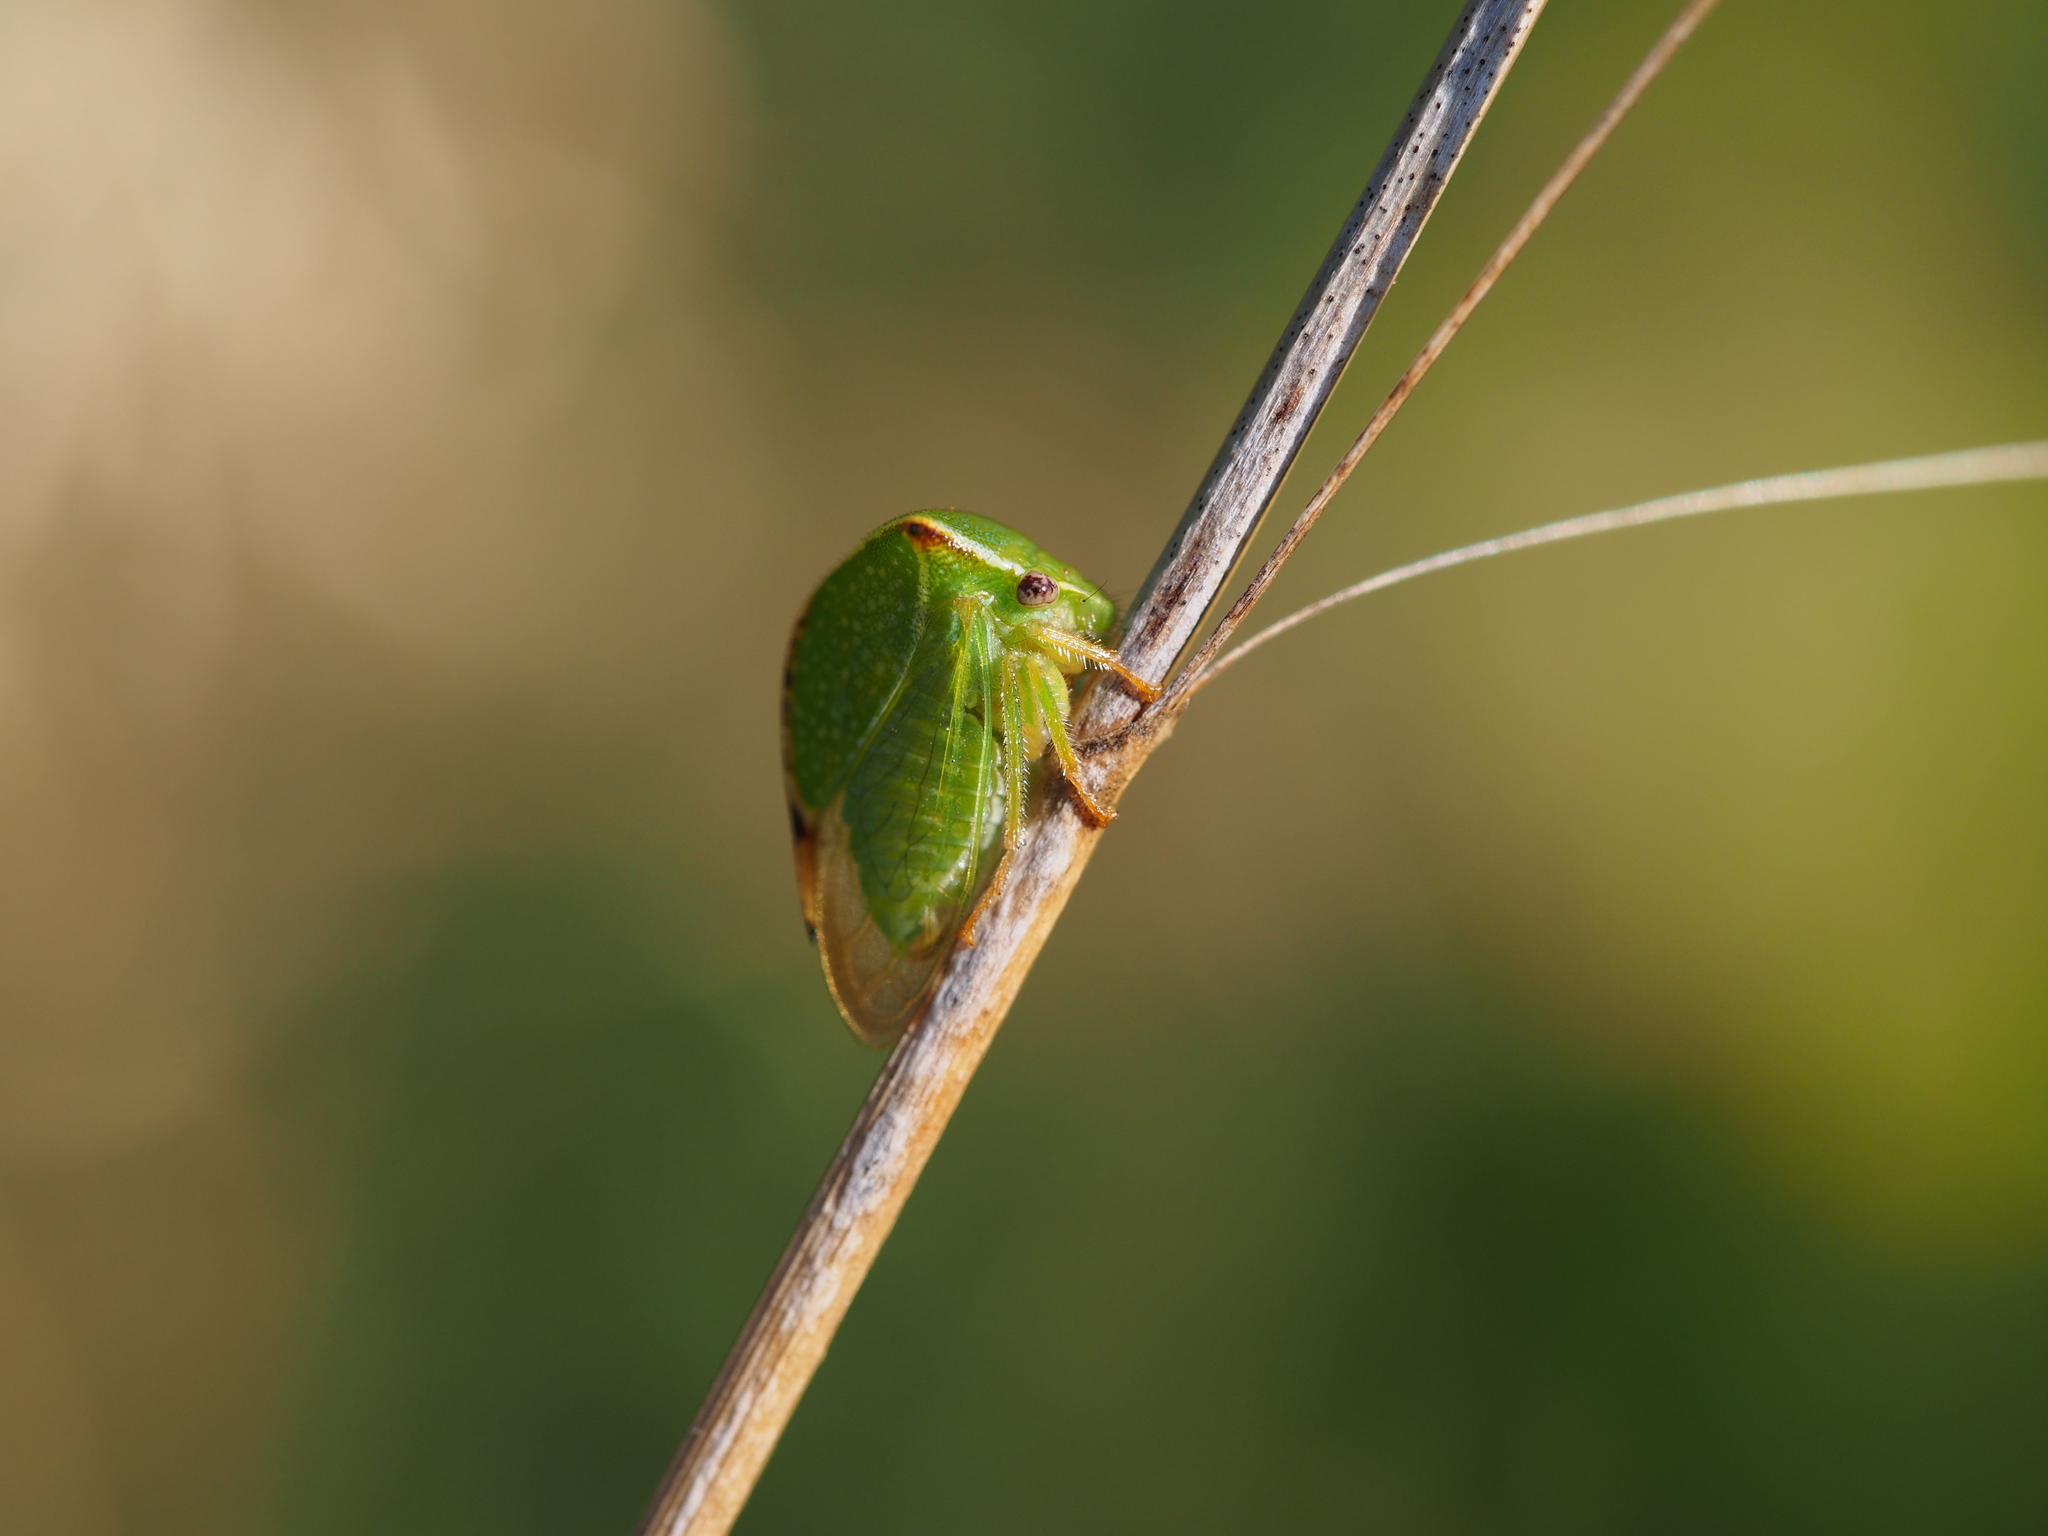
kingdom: Animalia
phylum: Arthropoda
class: Insecta
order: Hemiptera
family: Membracidae
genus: Stictocephala
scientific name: Stictocephala bisonia
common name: American buffalo treehopper
